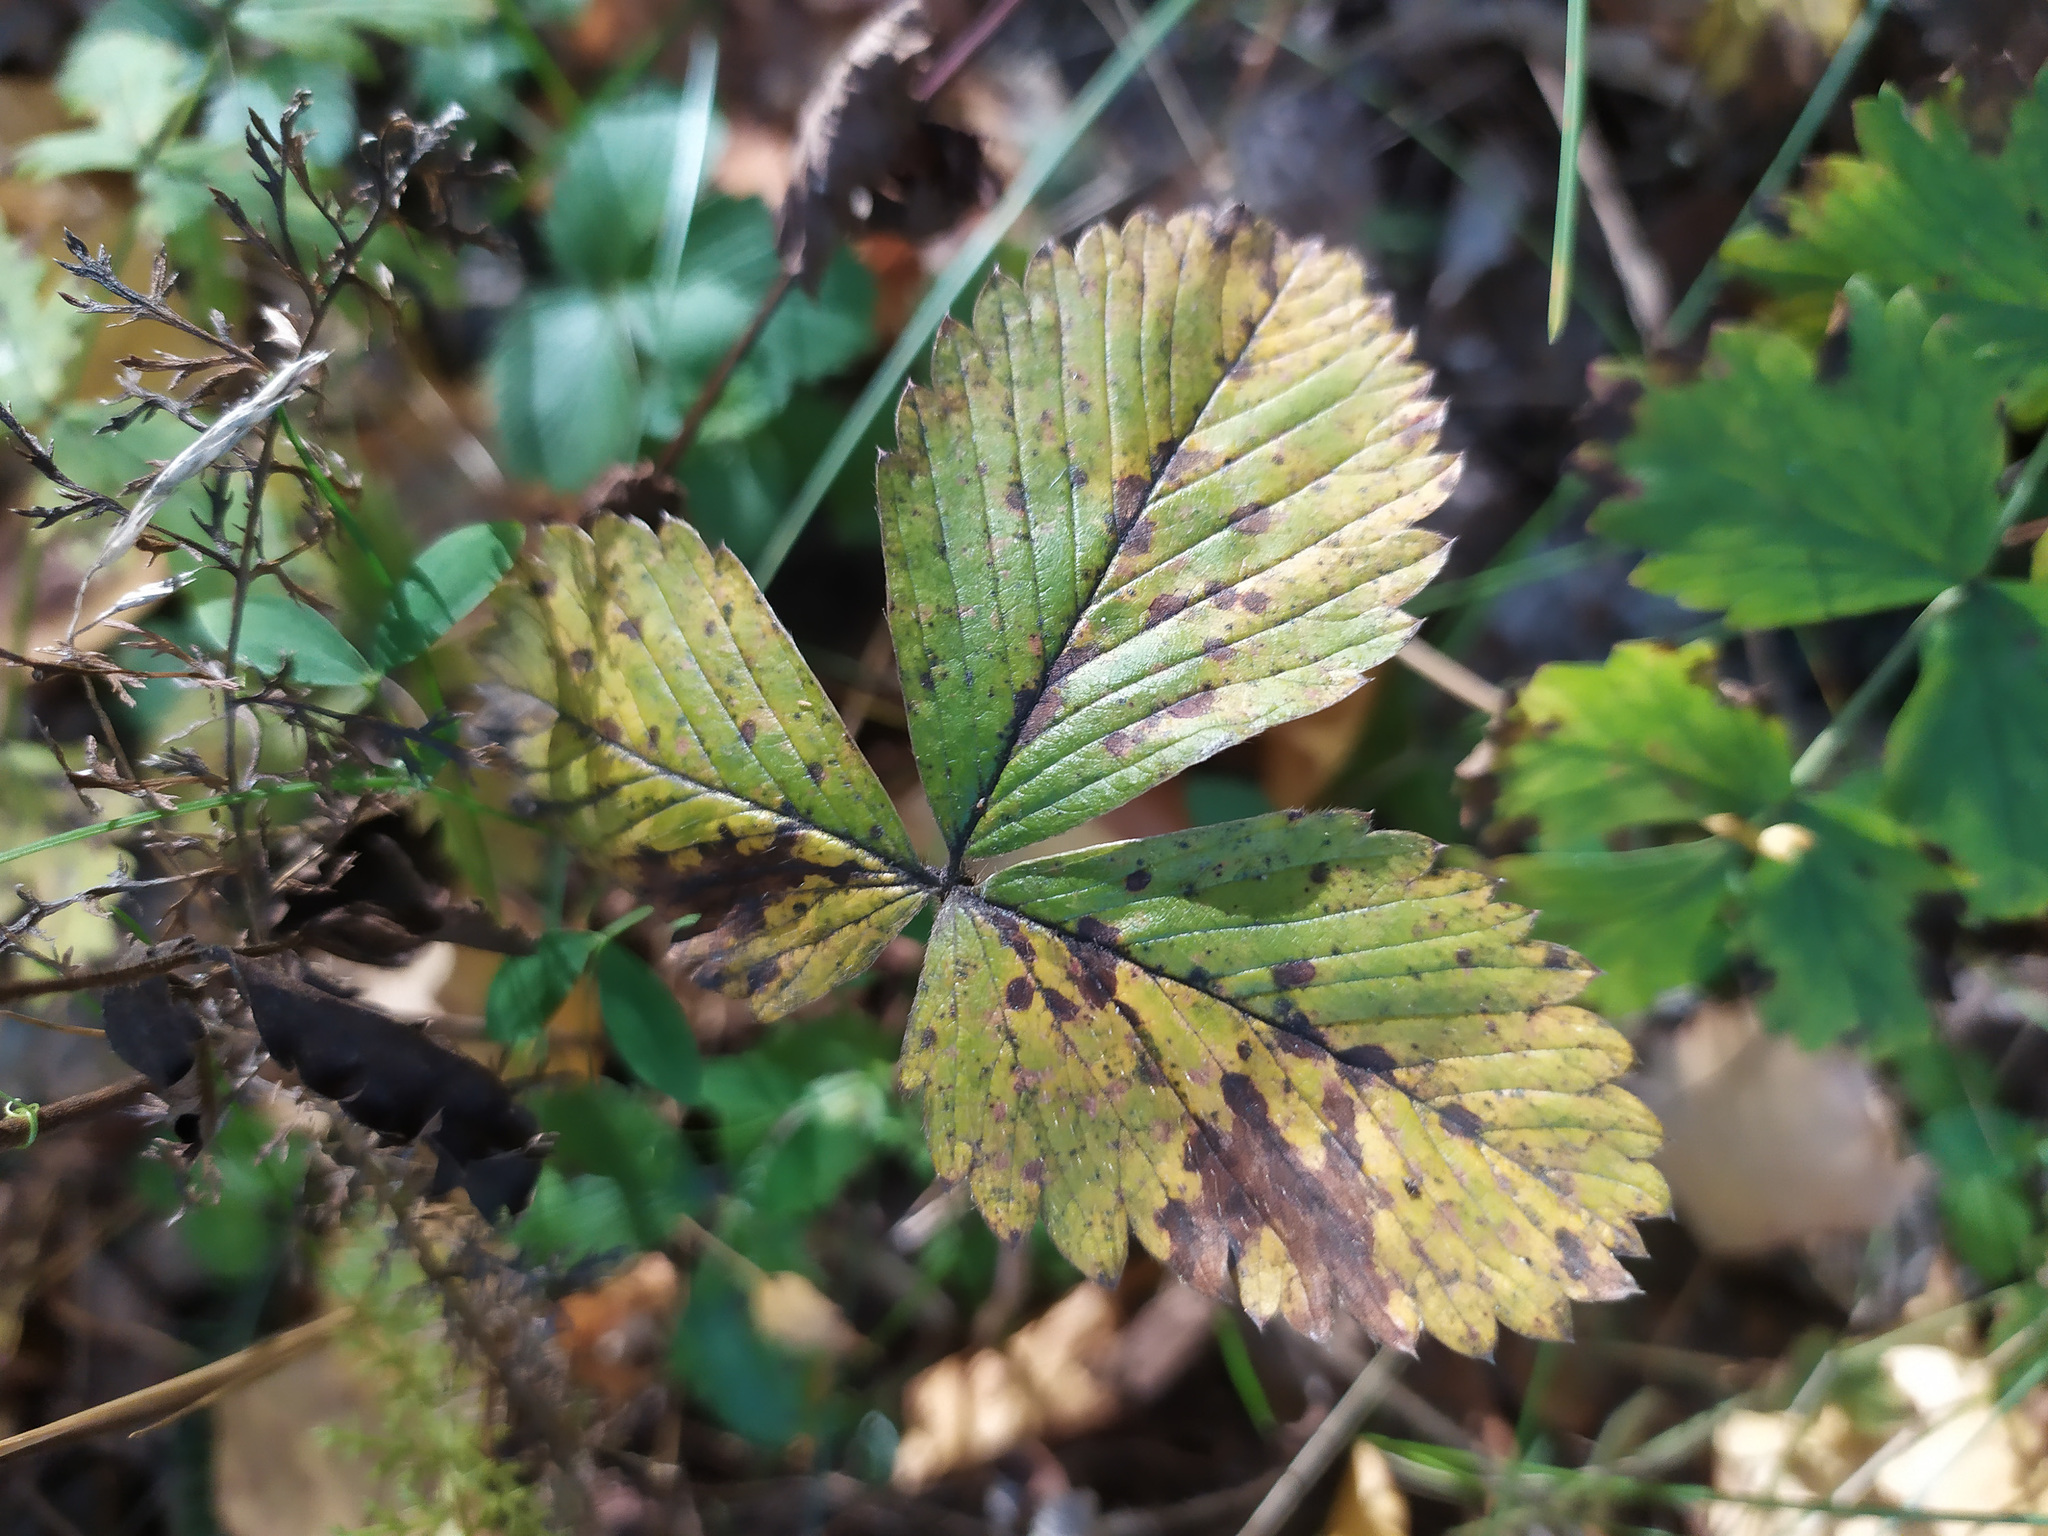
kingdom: Plantae
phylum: Tracheophyta
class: Magnoliopsida
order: Rosales
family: Rosaceae
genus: Fragaria
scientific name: Fragaria viridis
